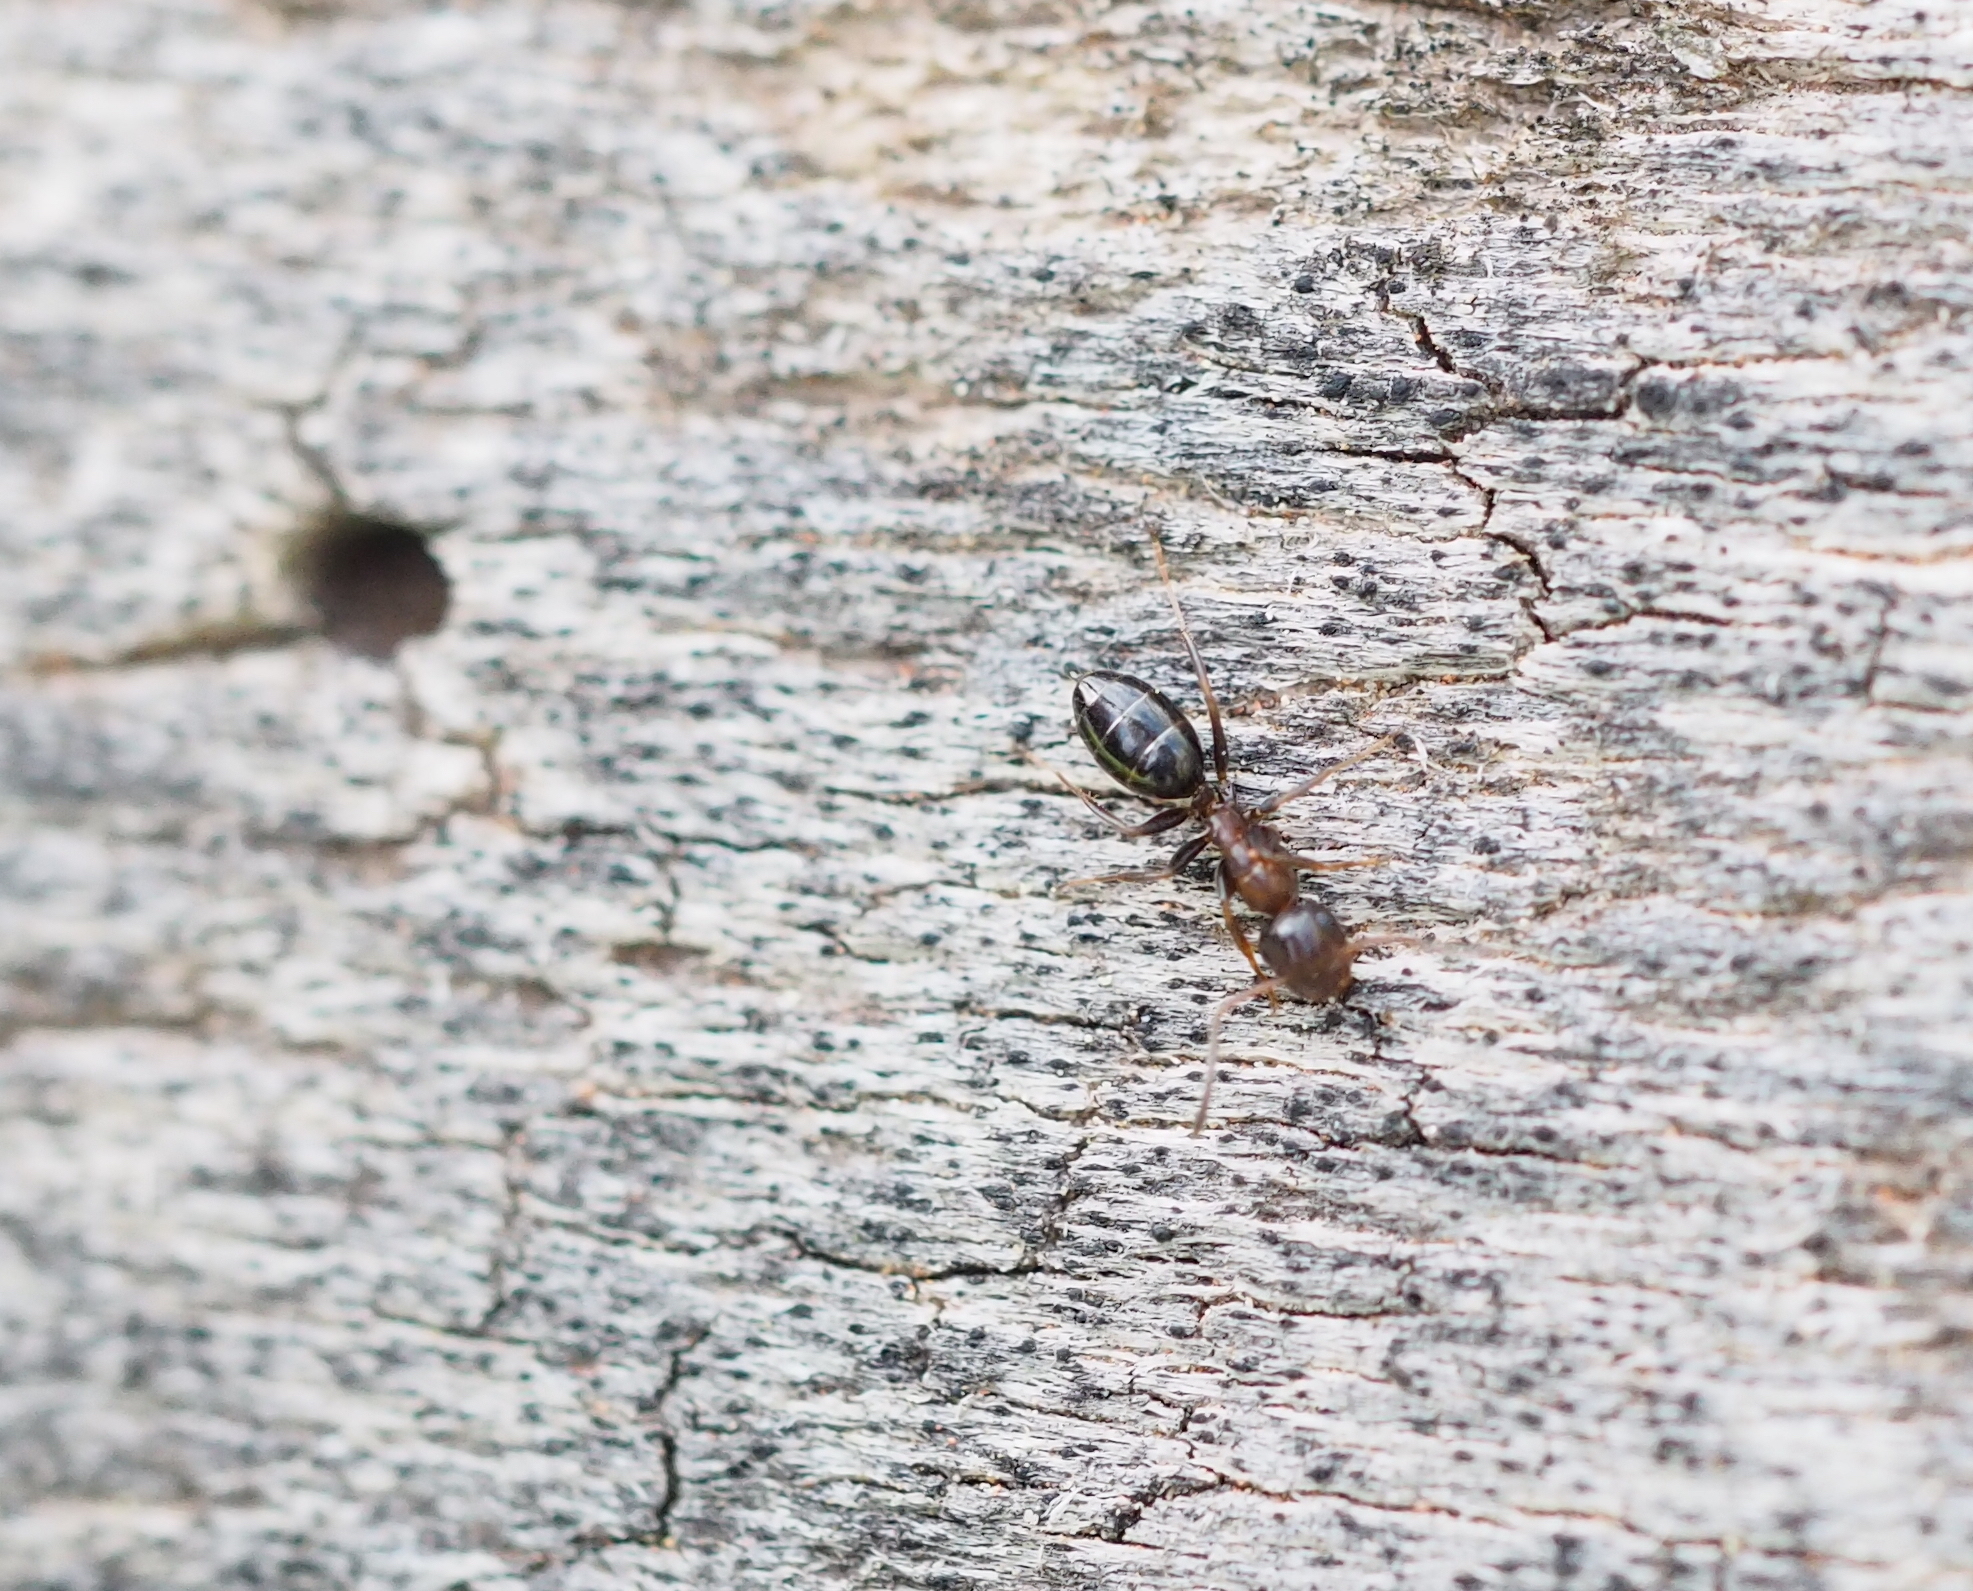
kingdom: Animalia
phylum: Arthropoda
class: Insecta
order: Hymenoptera
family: Formicidae
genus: Camponotus
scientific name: Camponotus truncatus
